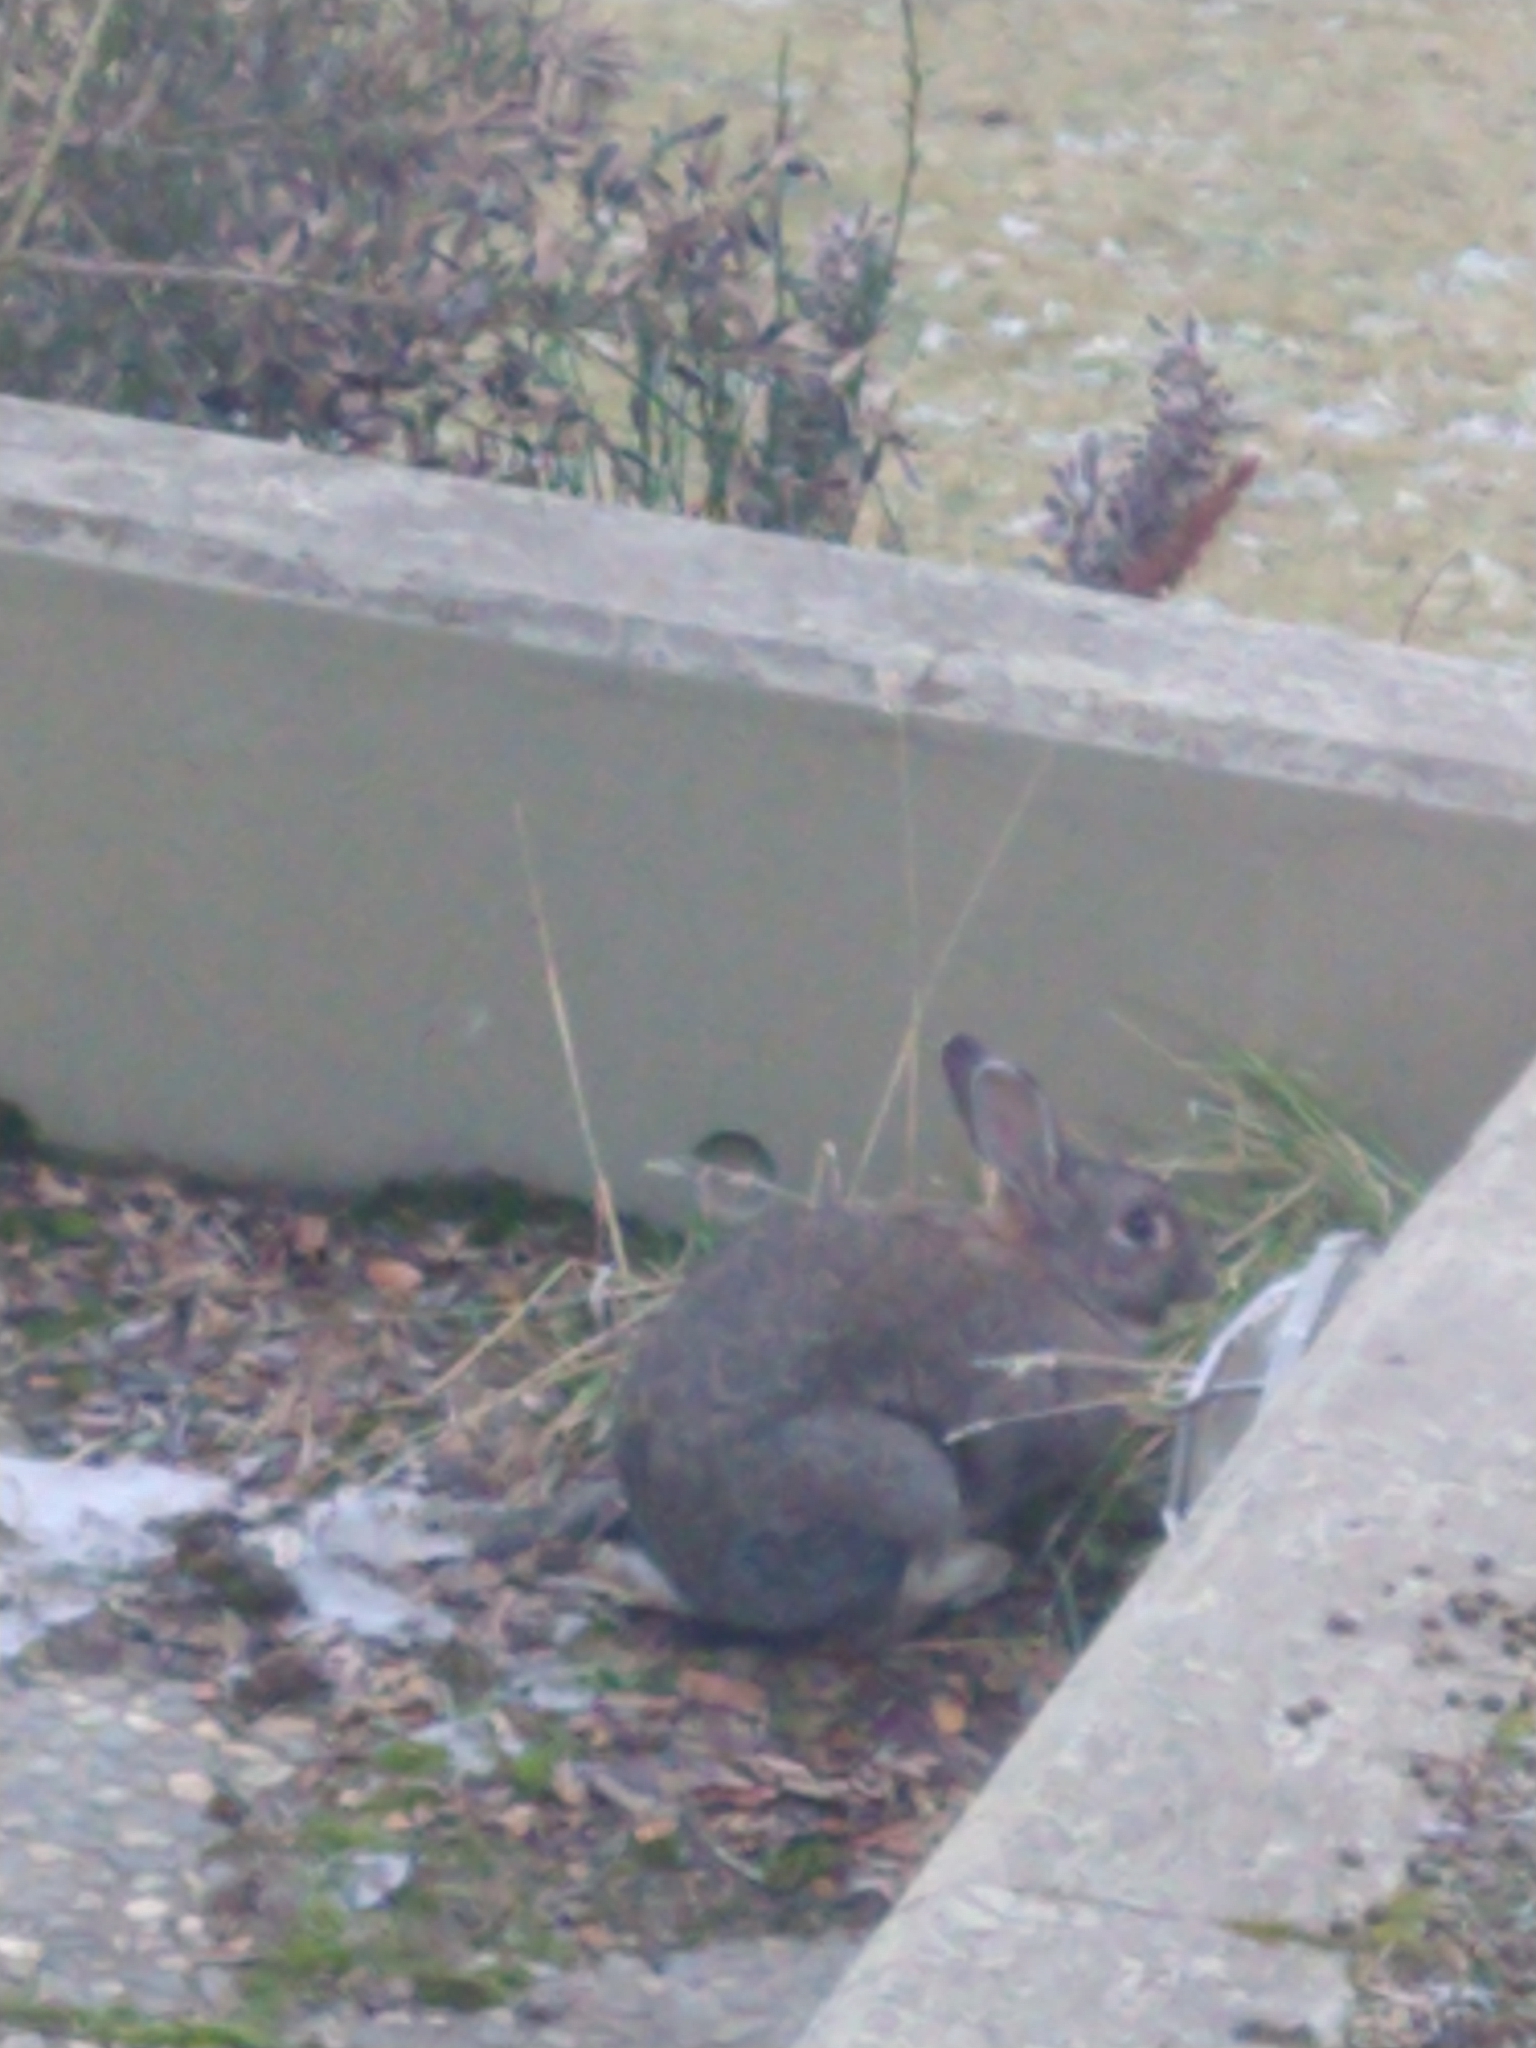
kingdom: Animalia
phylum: Chordata
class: Mammalia
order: Lagomorpha
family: Leporidae
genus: Oryctolagus
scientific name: Oryctolagus cuniculus
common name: European rabbit
